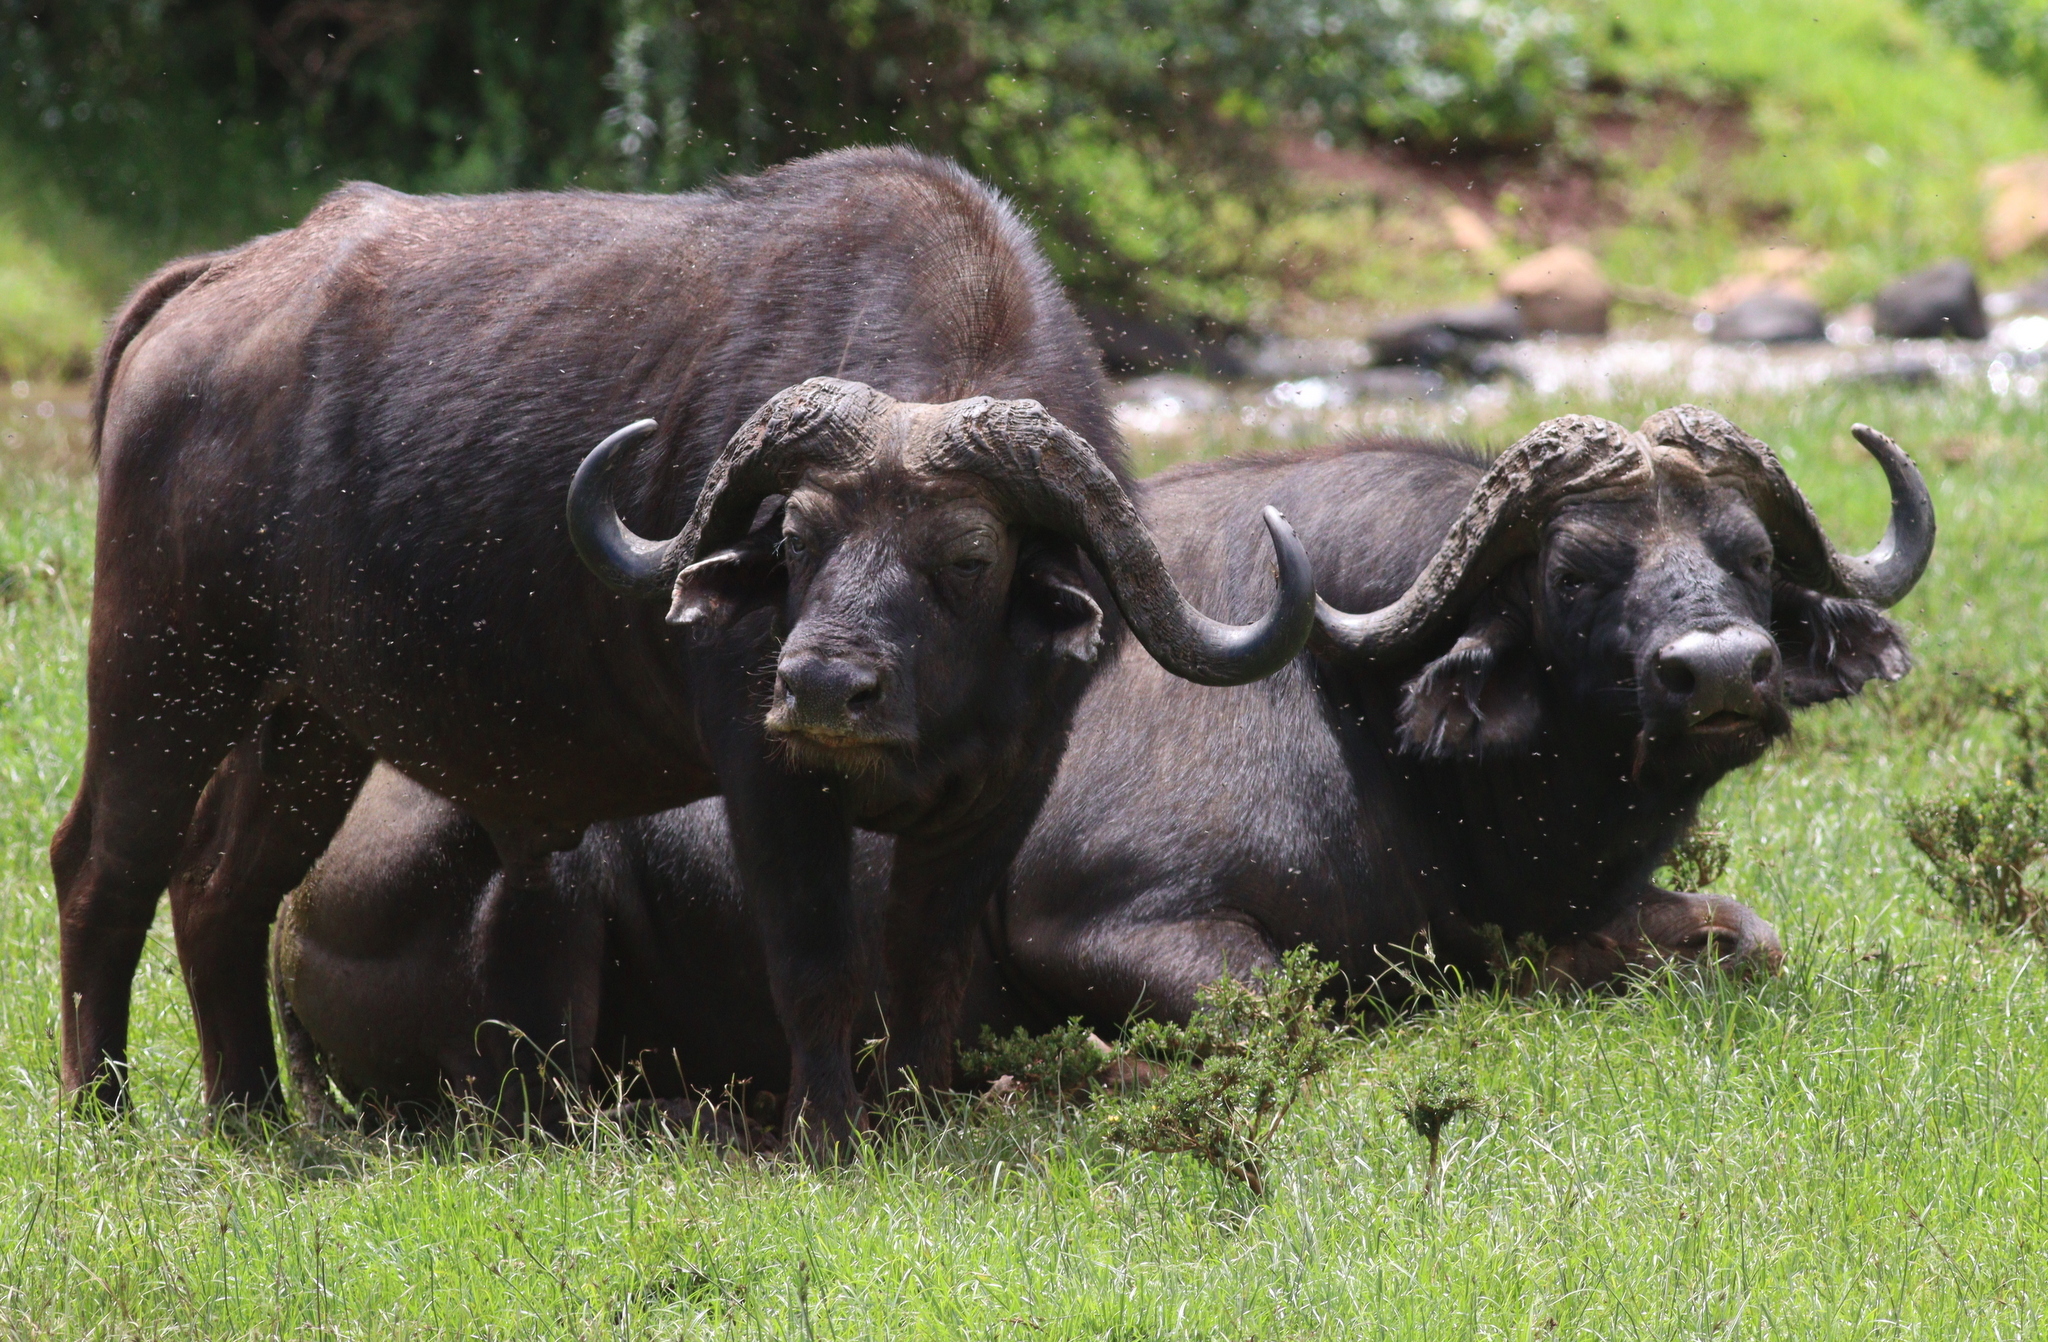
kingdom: Animalia
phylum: Chordata
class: Mammalia
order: Artiodactyla
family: Bovidae
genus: Syncerus
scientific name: Syncerus caffer
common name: African buffalo
